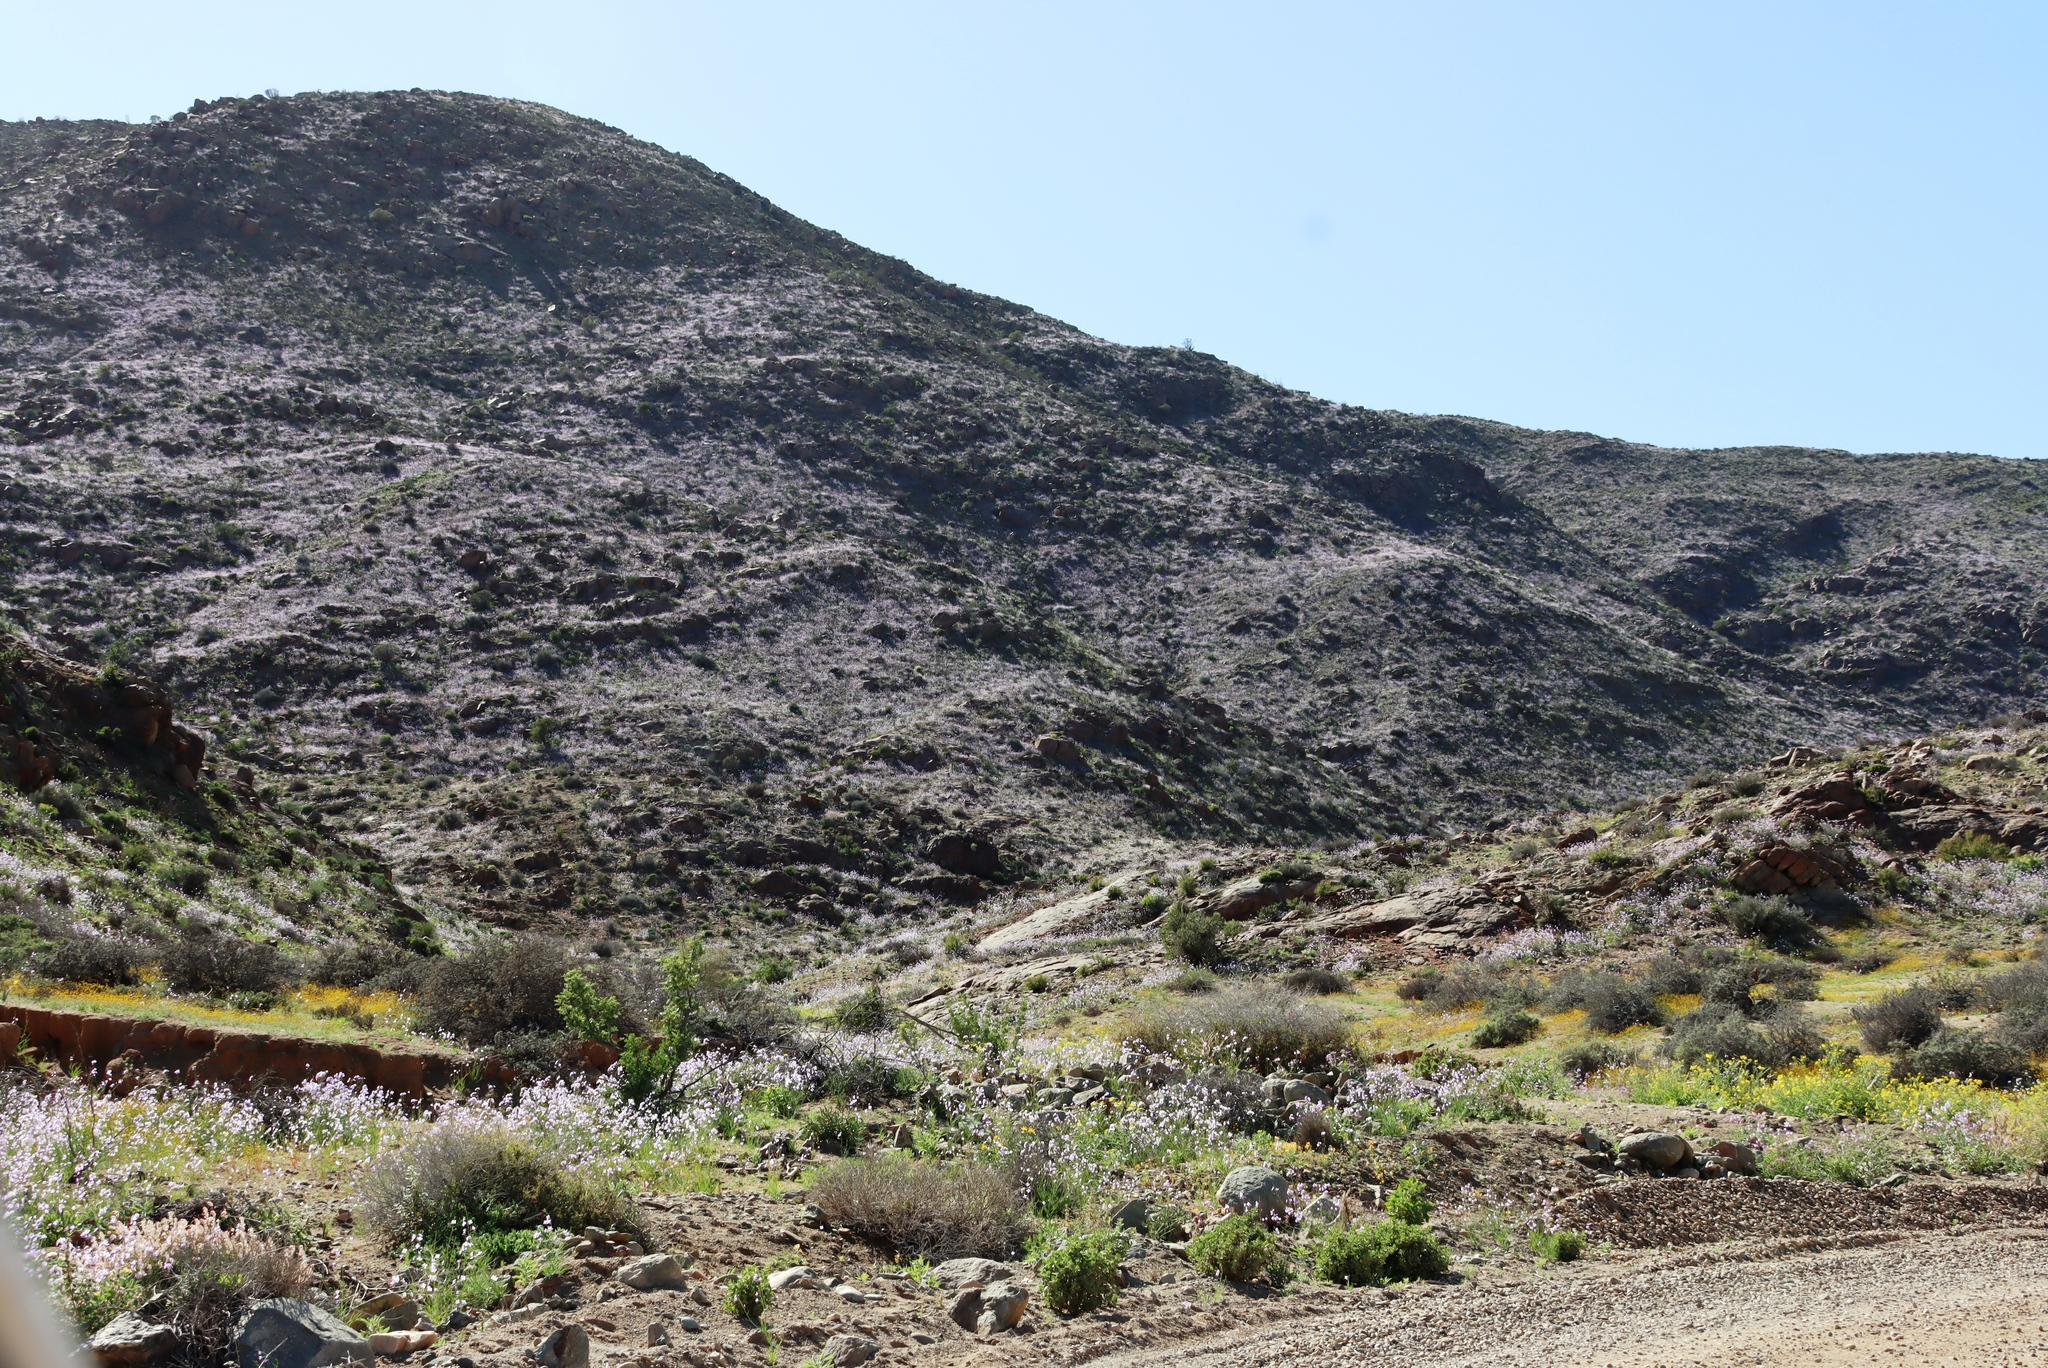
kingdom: Plantae
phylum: Tracheophyta
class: Magnoliopsida
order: Brassicales
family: Brassicaceae
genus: Heliophila
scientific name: Heliophila trifurca
